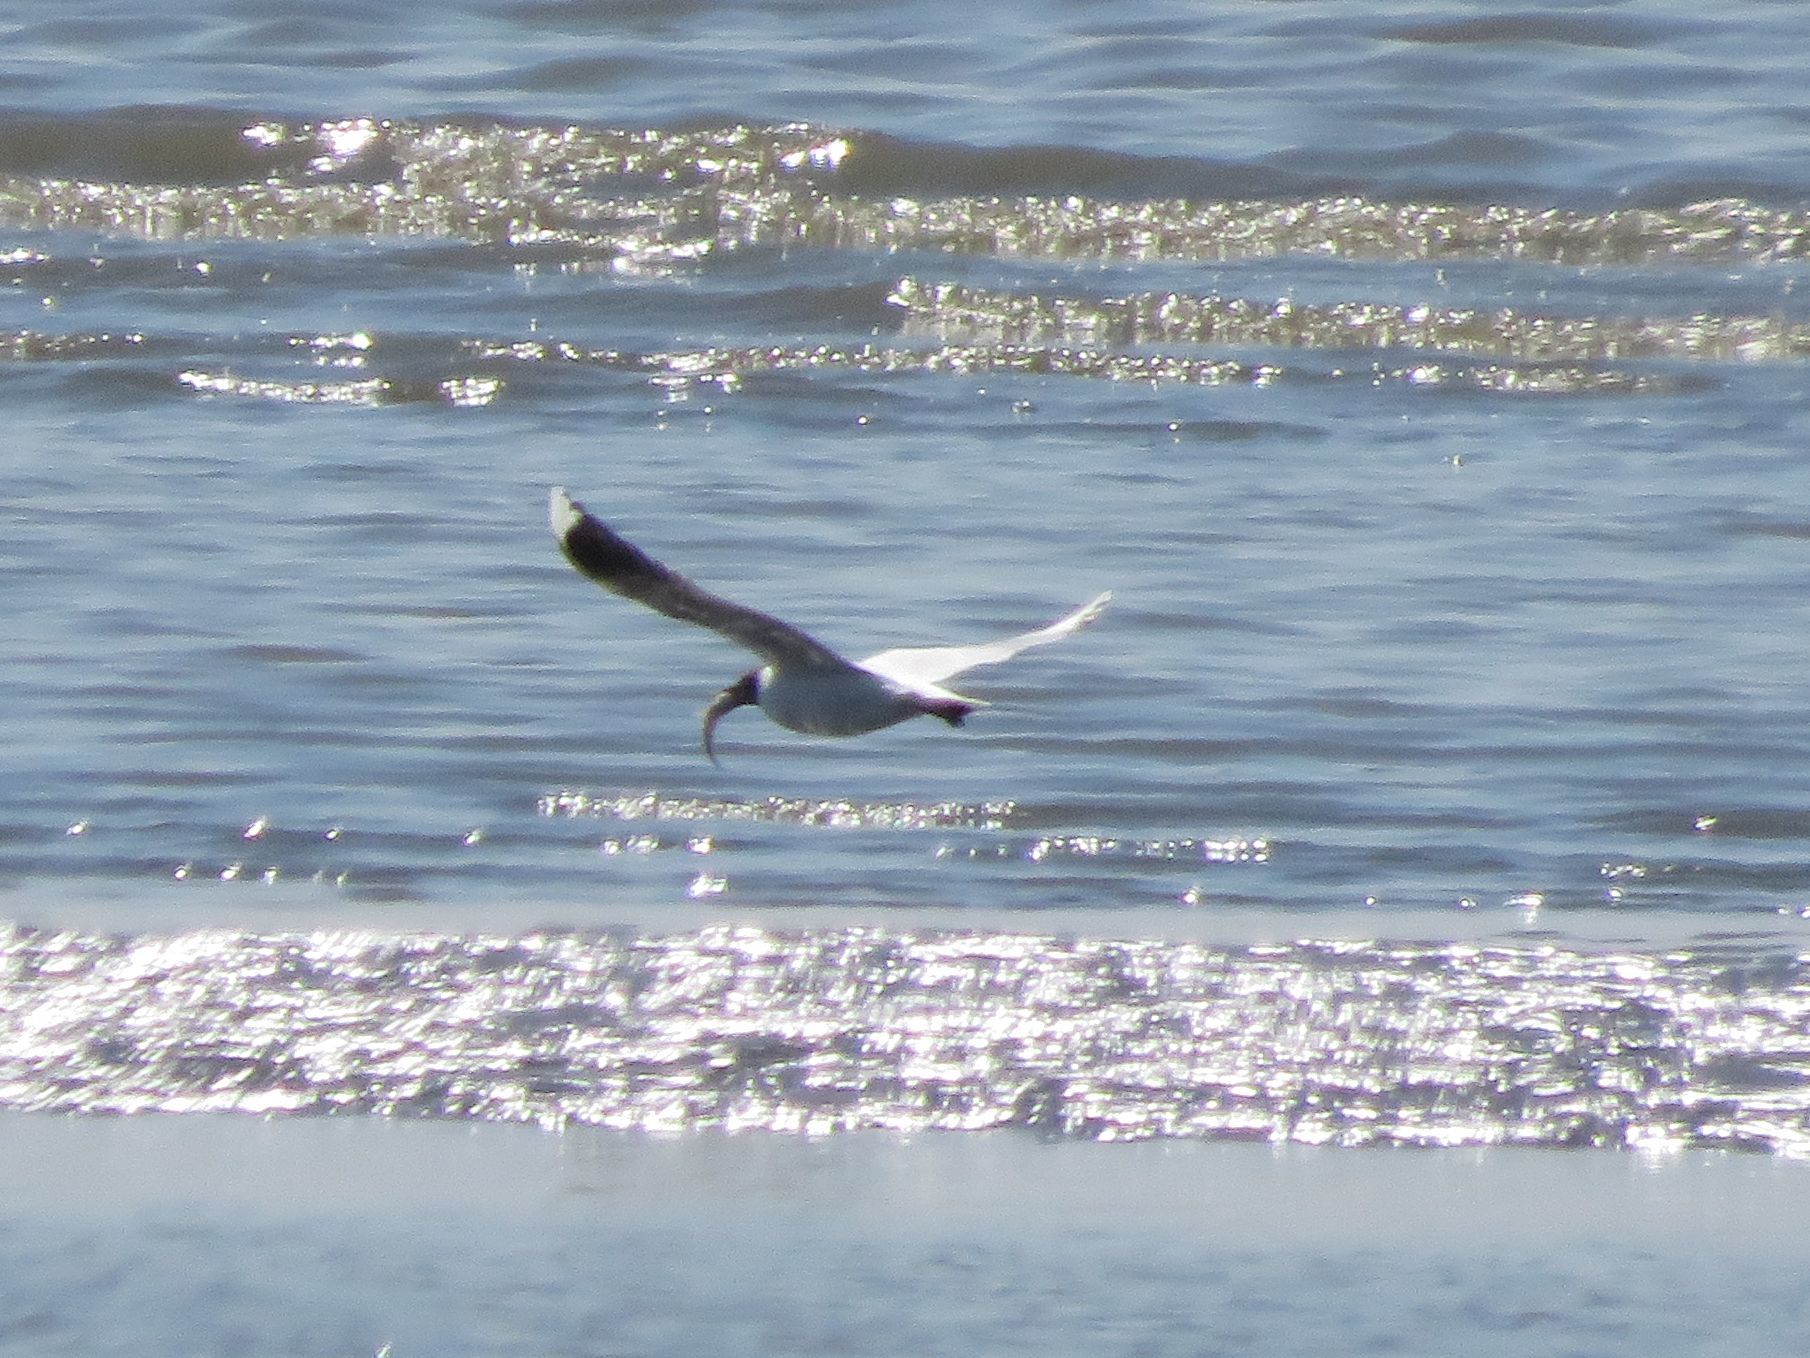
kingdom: Animalia
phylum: Chordata
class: Aves
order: Charadriiformes
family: Laridae
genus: Chroicocephalus
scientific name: Chroicocephalus maculipennis
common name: Brown-hooded gull
